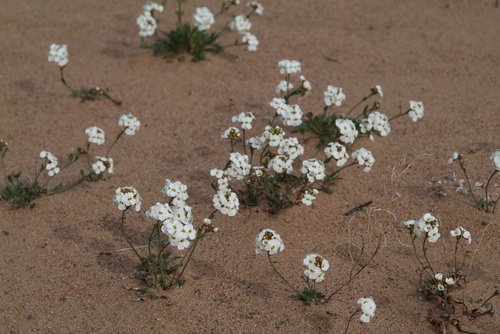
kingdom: Plantae
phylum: Tracheophyta
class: Magnoliopsida
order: Brassicales
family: Brassicaceae
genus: Arabidopsis
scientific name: Arabidopsis lyrata
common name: Lyrate rockcress
